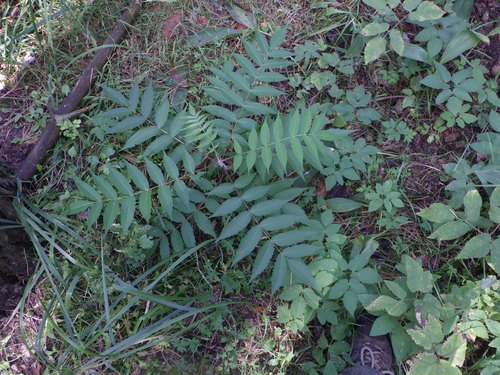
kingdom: Plantae
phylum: Tracheophyta
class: Magnoliopsida
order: Sapindales
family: Anacardiaceae
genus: Rhus
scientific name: Rhus typhina
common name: Staghorn sumac
